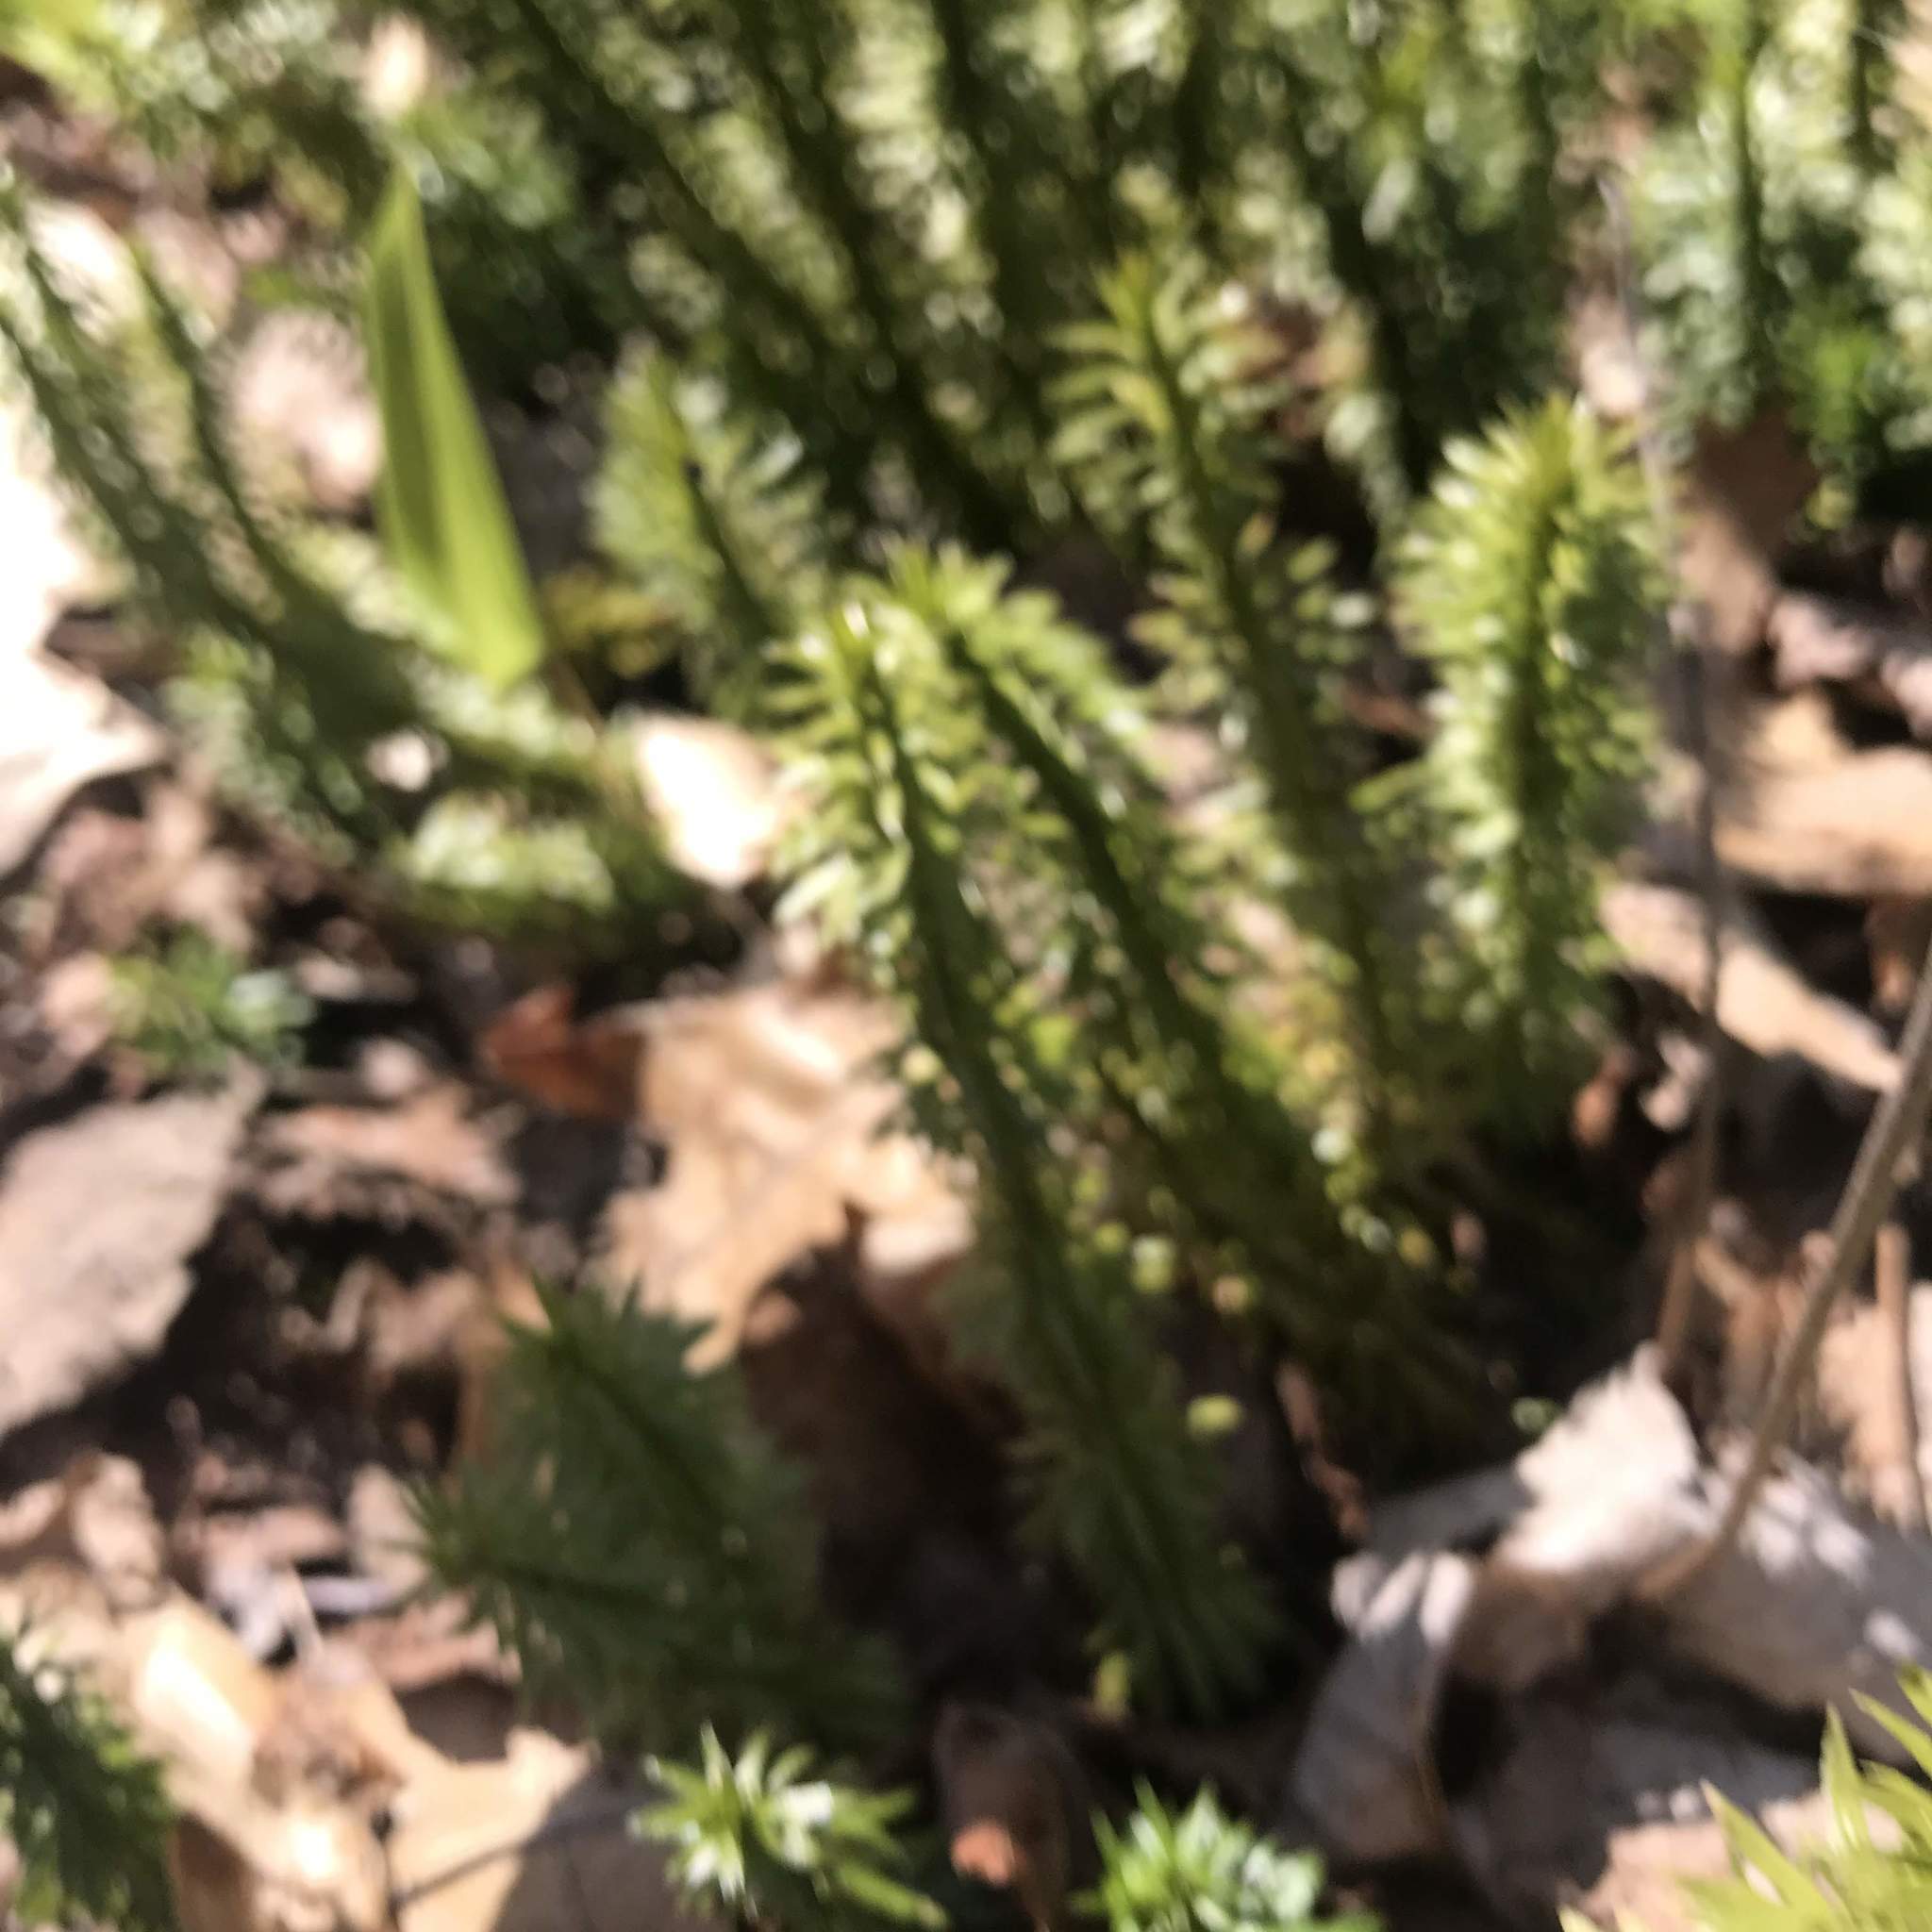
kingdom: Plantae
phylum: Tracheophyta
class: Lycopodiopsida
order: Lycopodiales
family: Lycopodiaceae
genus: Huperzia
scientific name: Huperzia lucidula
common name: Shining clubmoss
